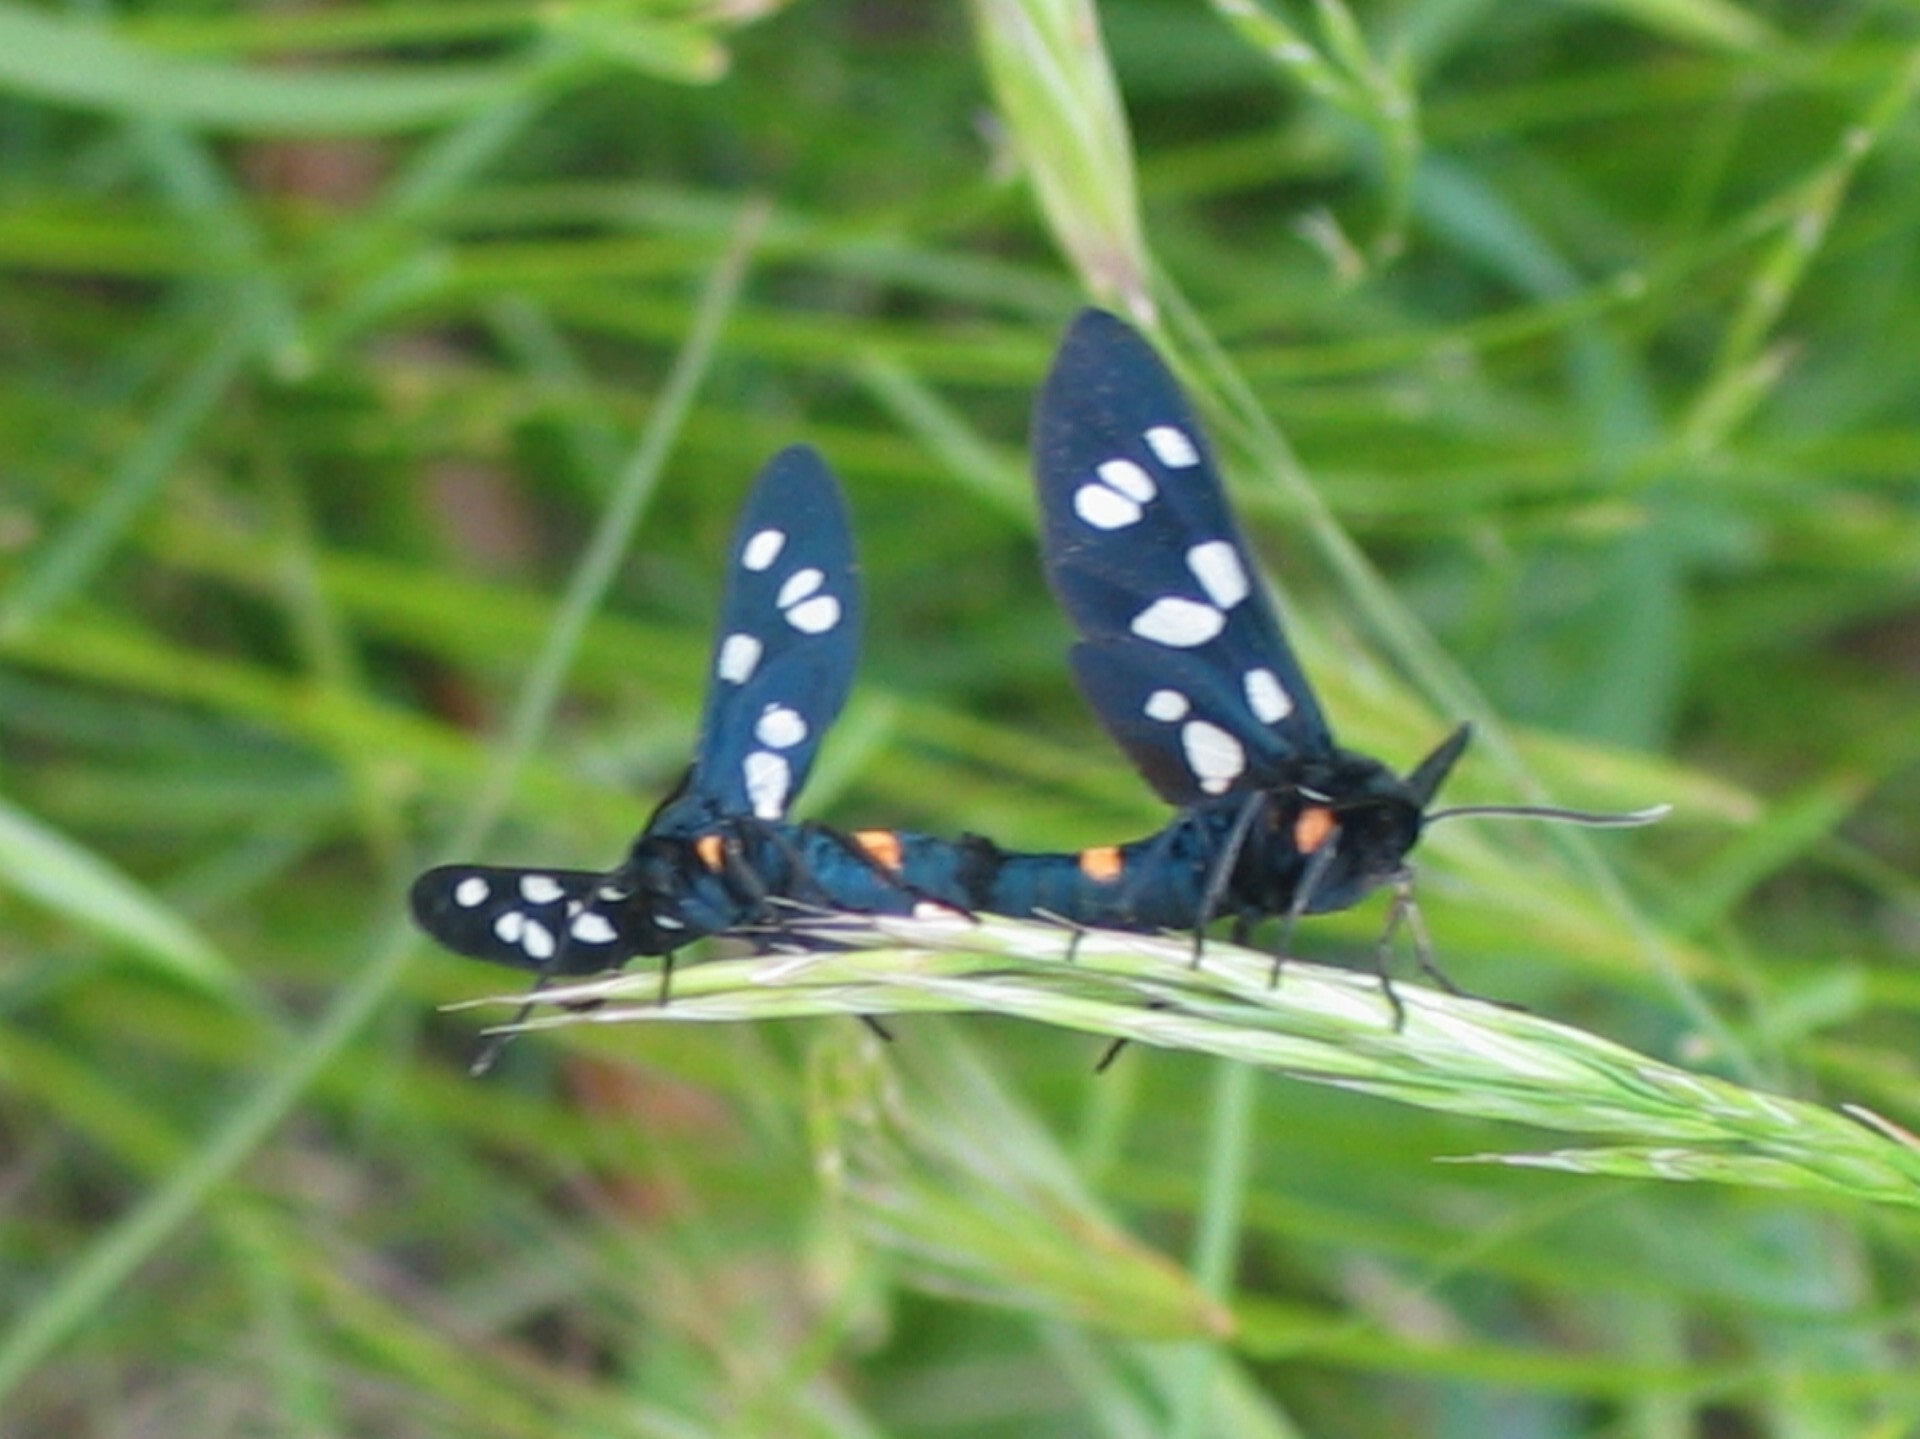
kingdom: Animalia
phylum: Arthropoda
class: Insecta
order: Lepidoptera
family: Erebidae
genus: Amata
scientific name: Amata phegea
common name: Nine-spotted
